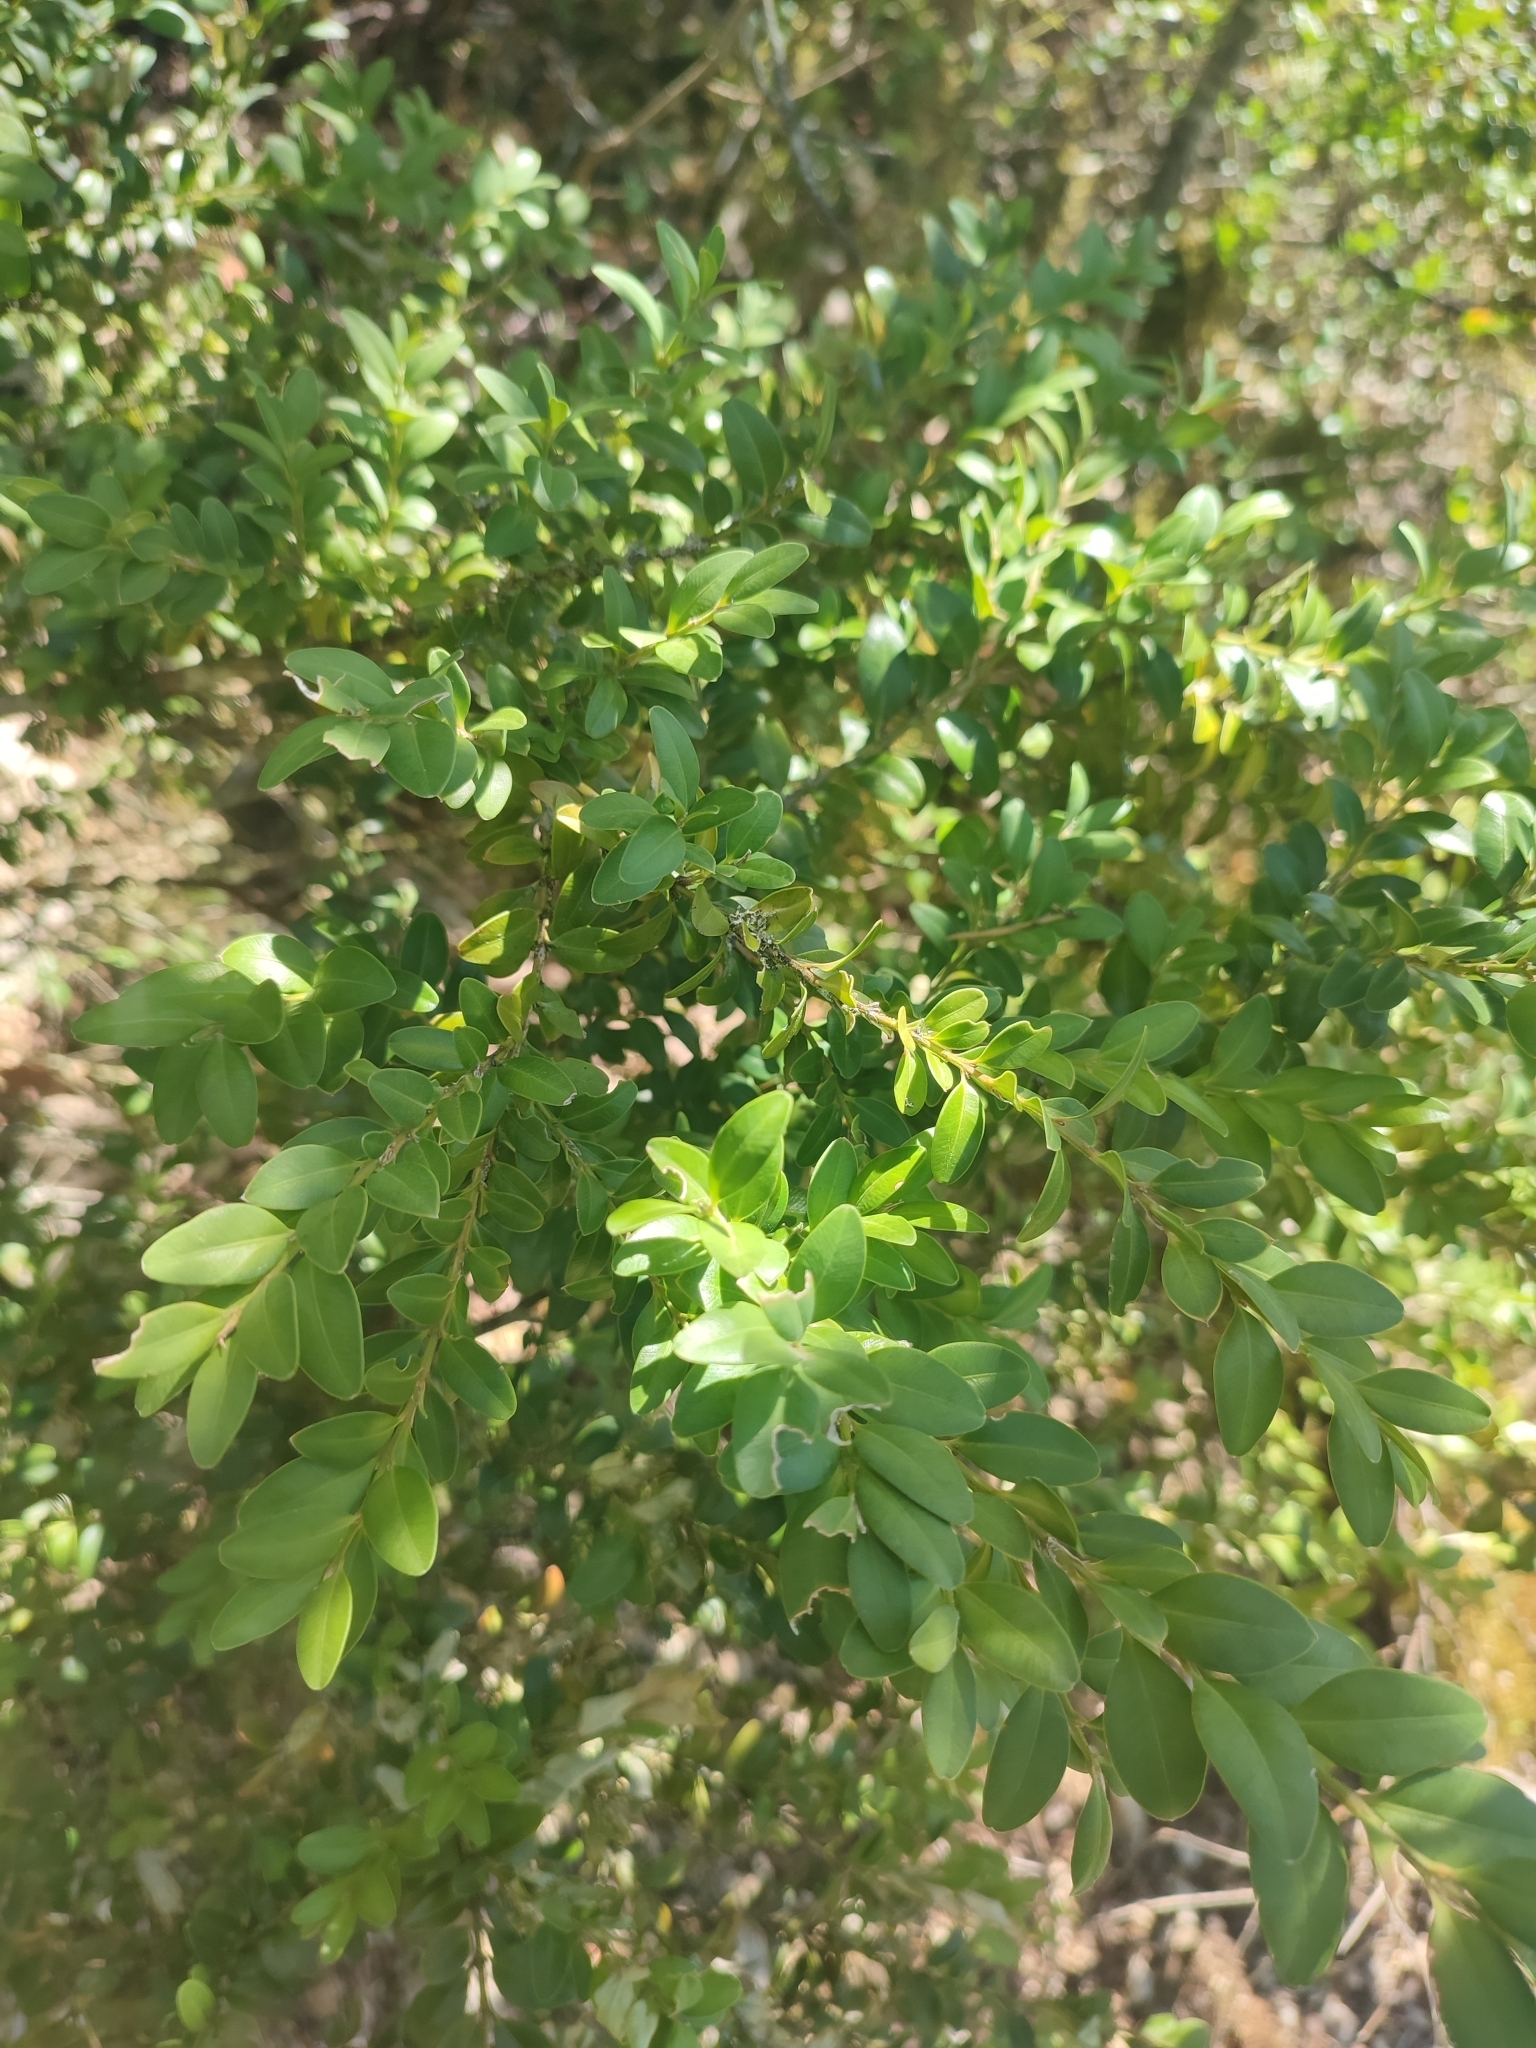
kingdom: Plantae
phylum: Tracheophyta
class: Magnoliopsida
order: Buxales
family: Buxaceae
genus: Buxus
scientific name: Buxus sempervirens
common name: Box
